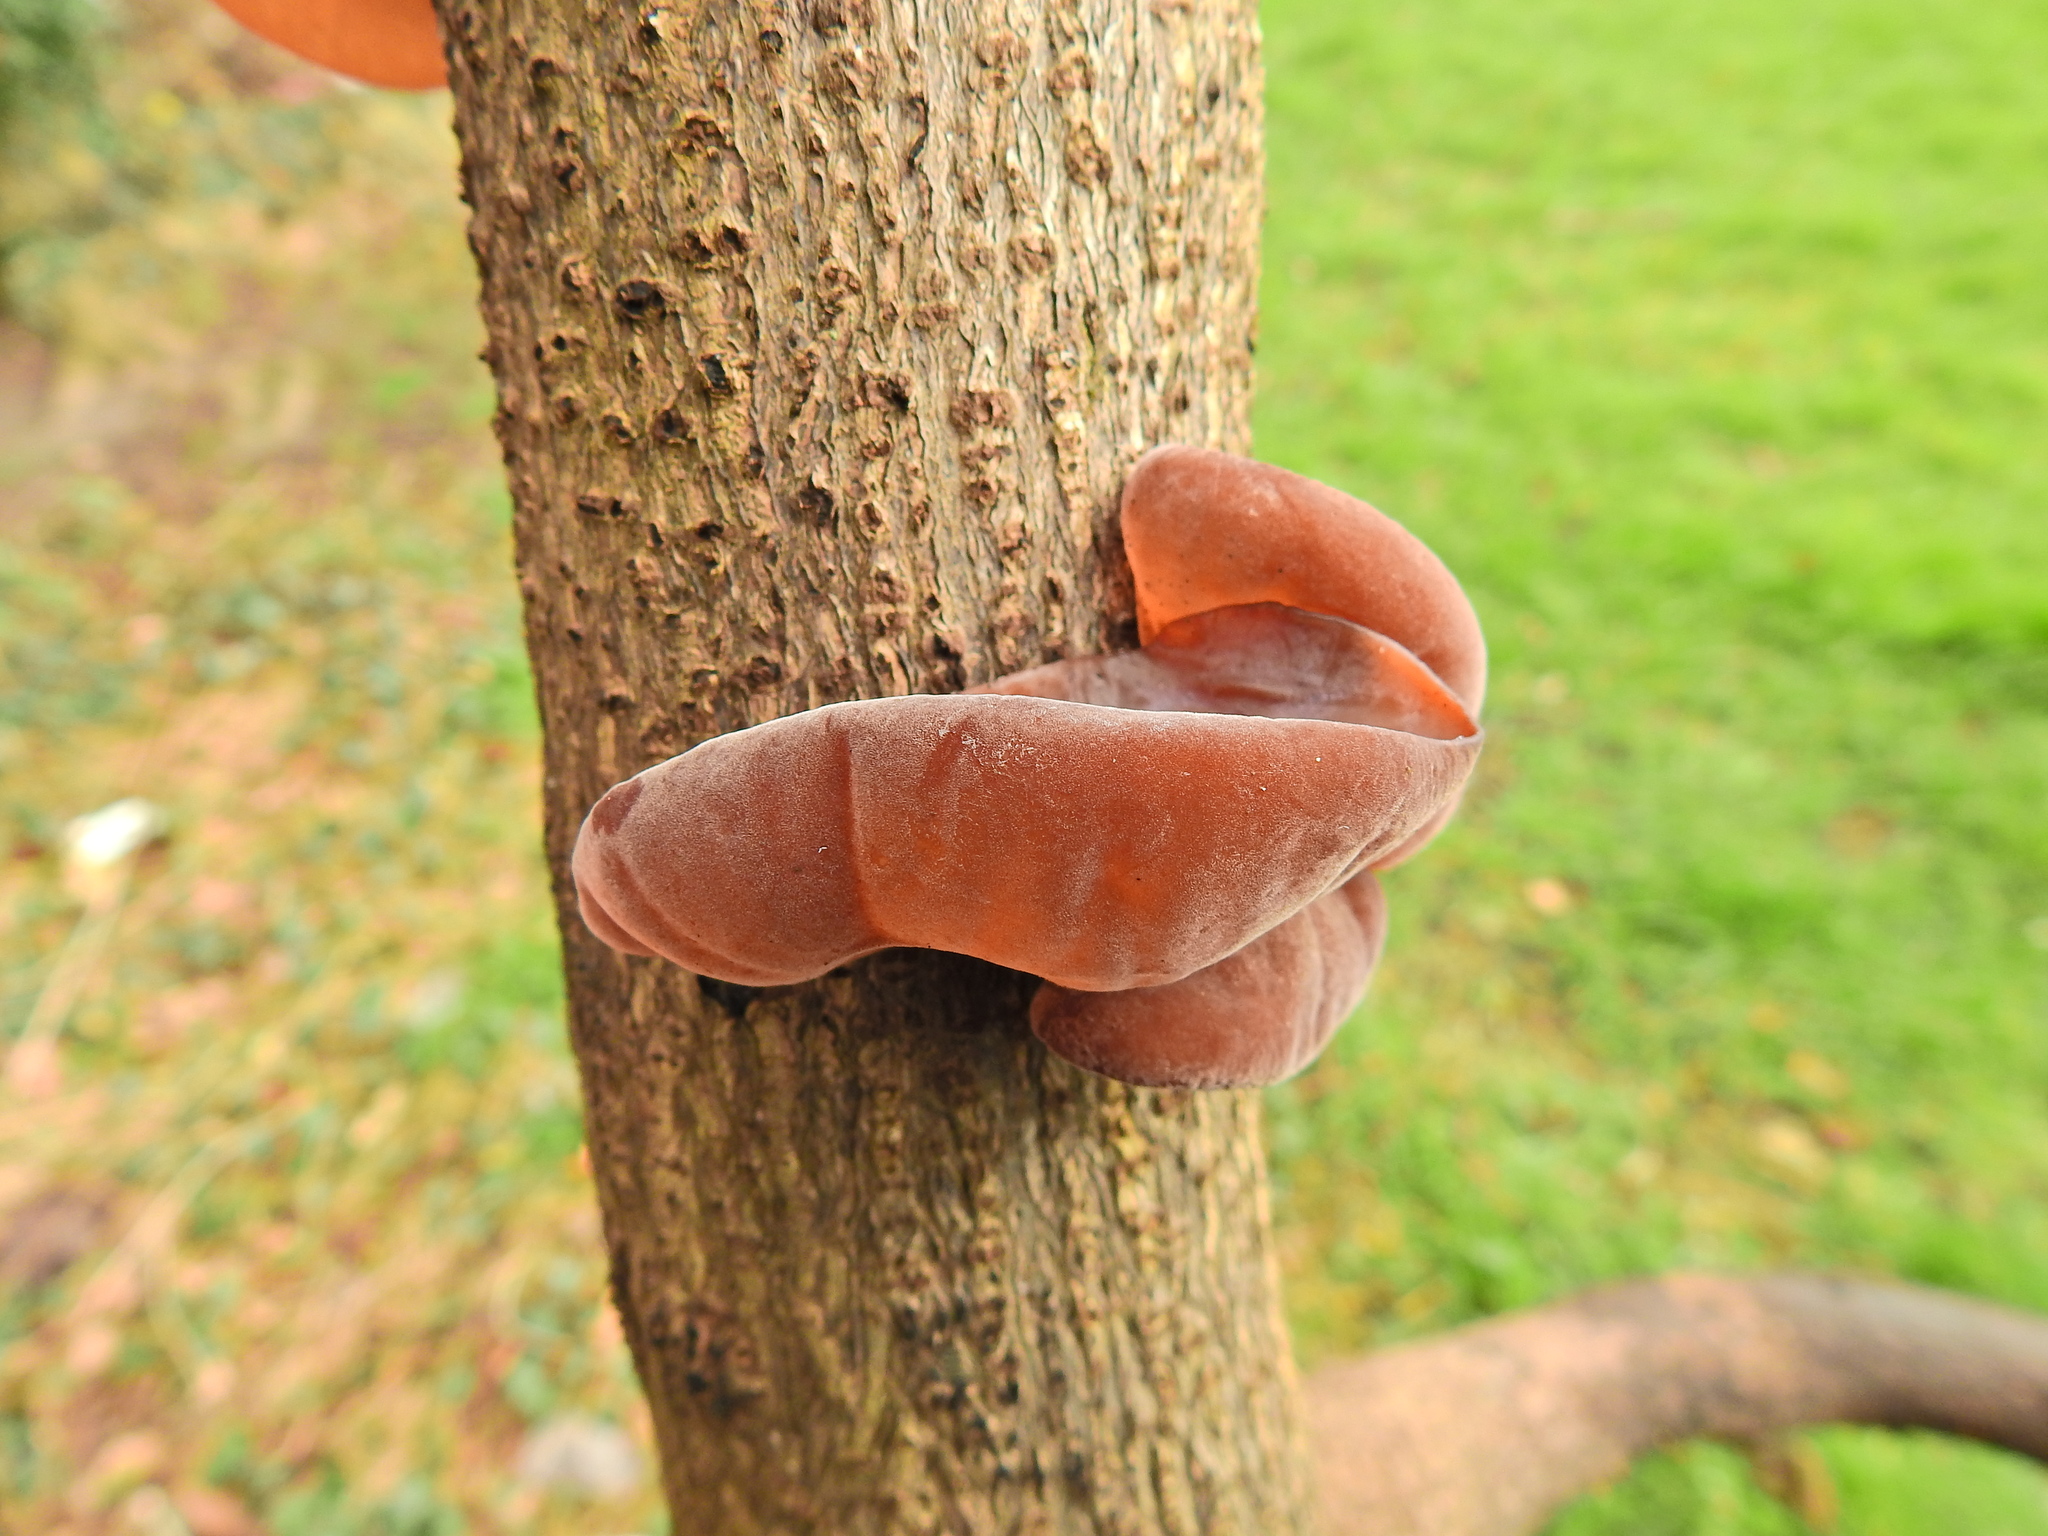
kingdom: Fungi
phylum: Basidiomycota
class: Agaricomycetes
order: Auriculariales
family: Auriculariaceae
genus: Auricularia
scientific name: Auricularia auricula-judae
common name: Jelly ear
